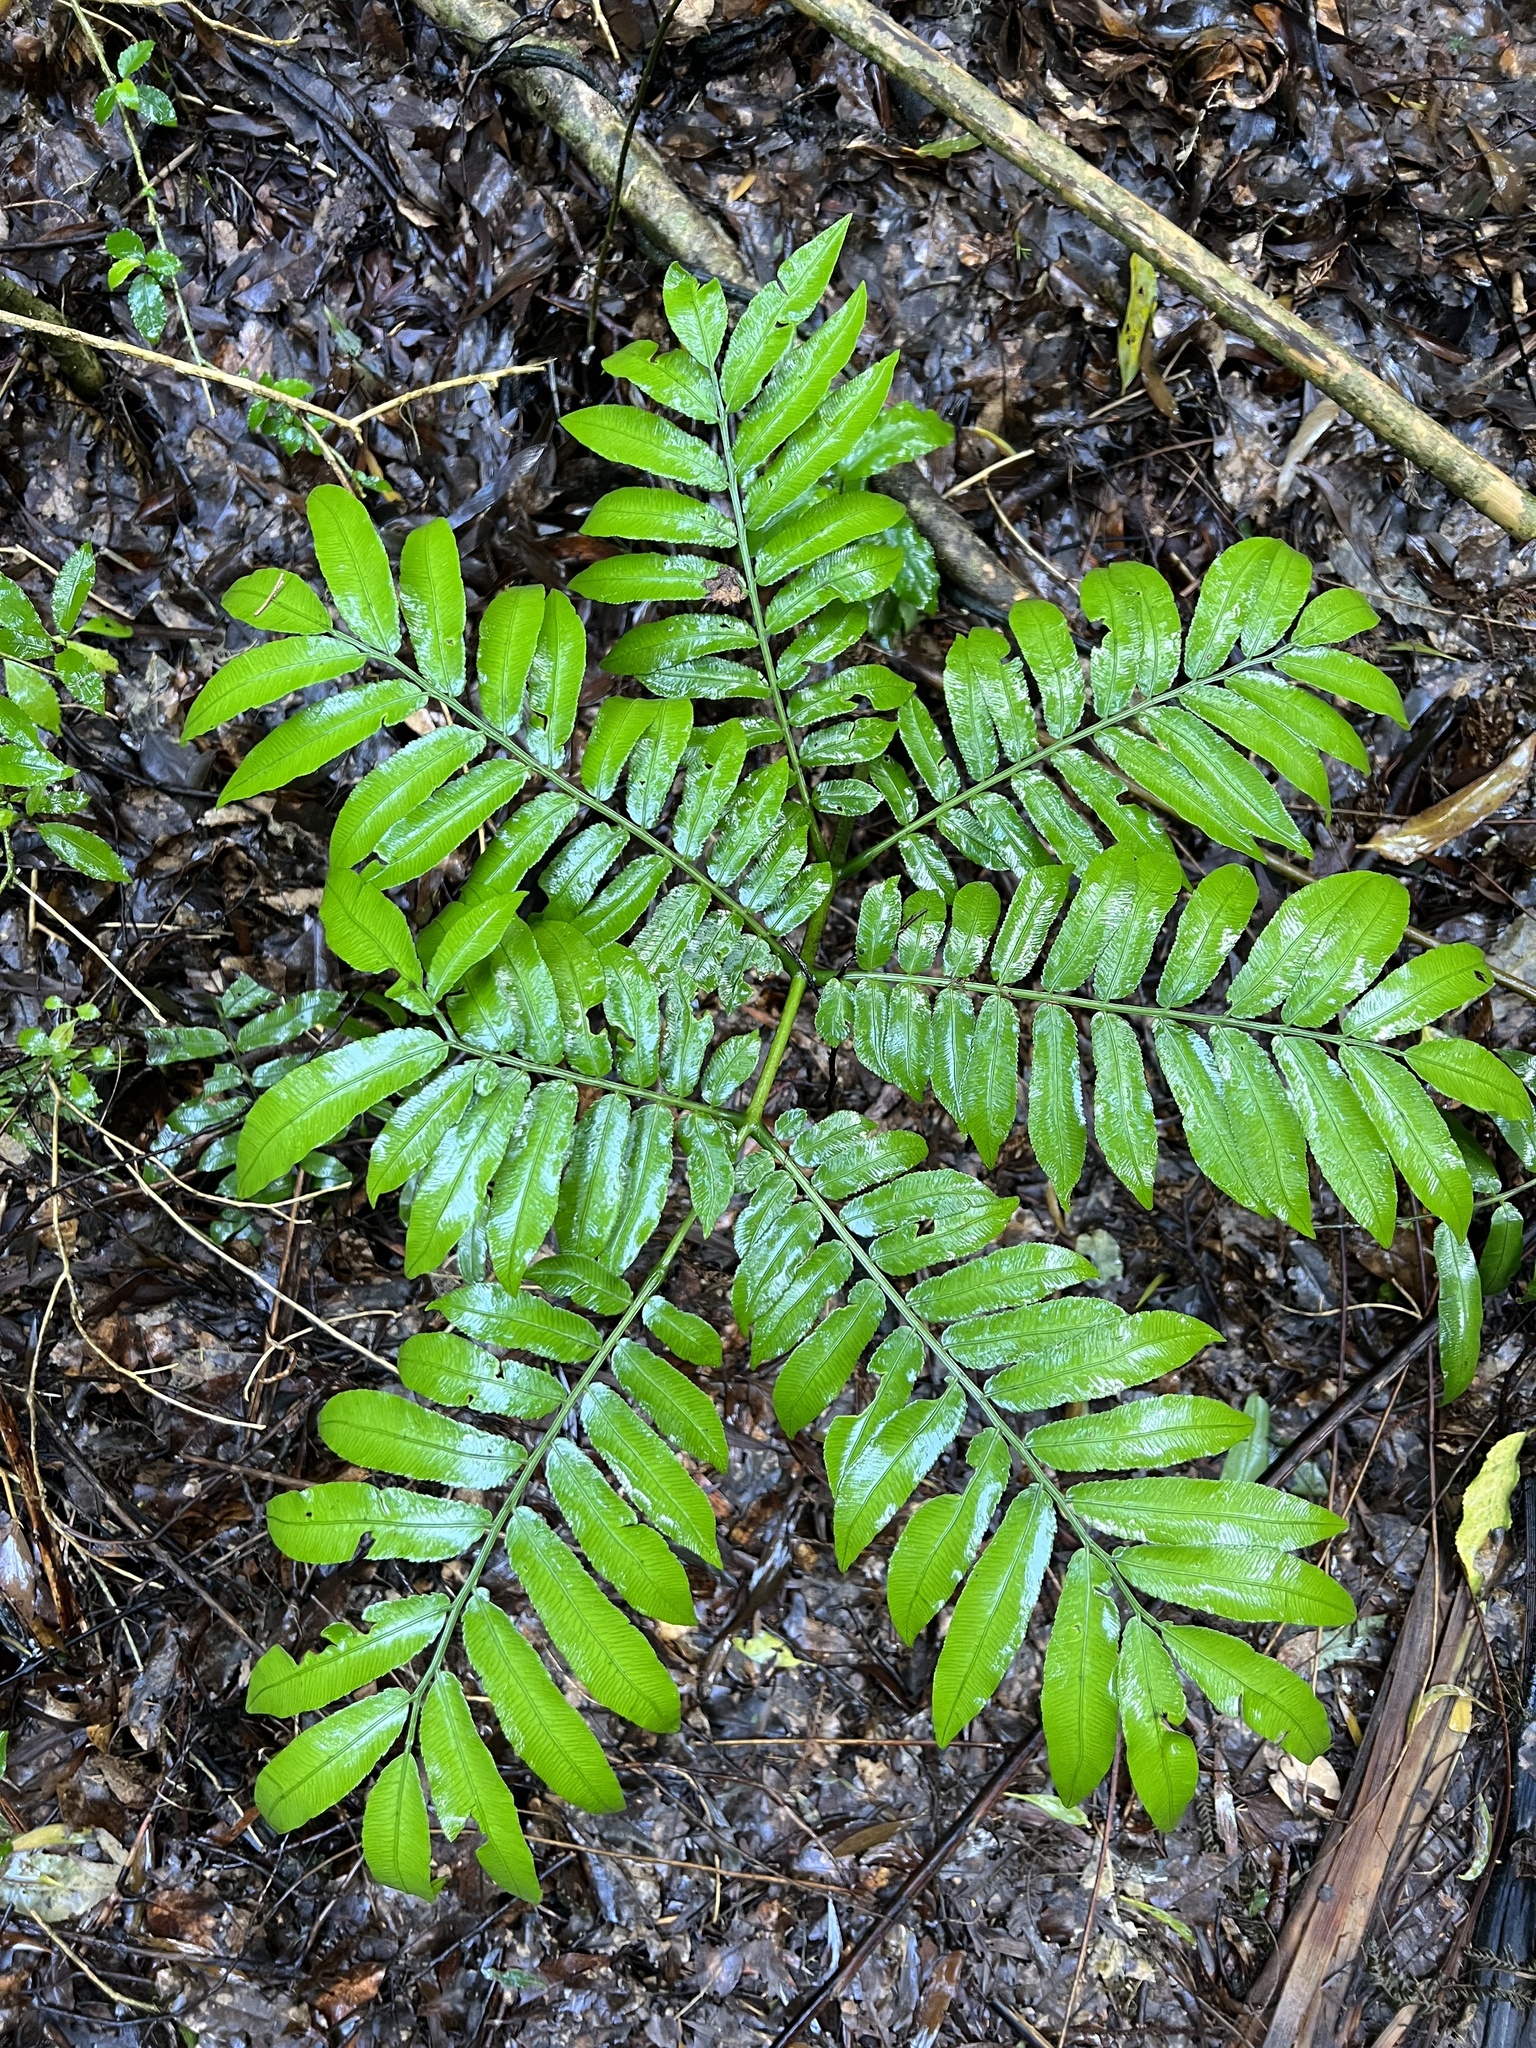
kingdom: Plantae
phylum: Tracheophyta
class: Polypodiopsida
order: Marattiales
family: Marattiaceae
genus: Ptisana
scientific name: Ptisana salicina
